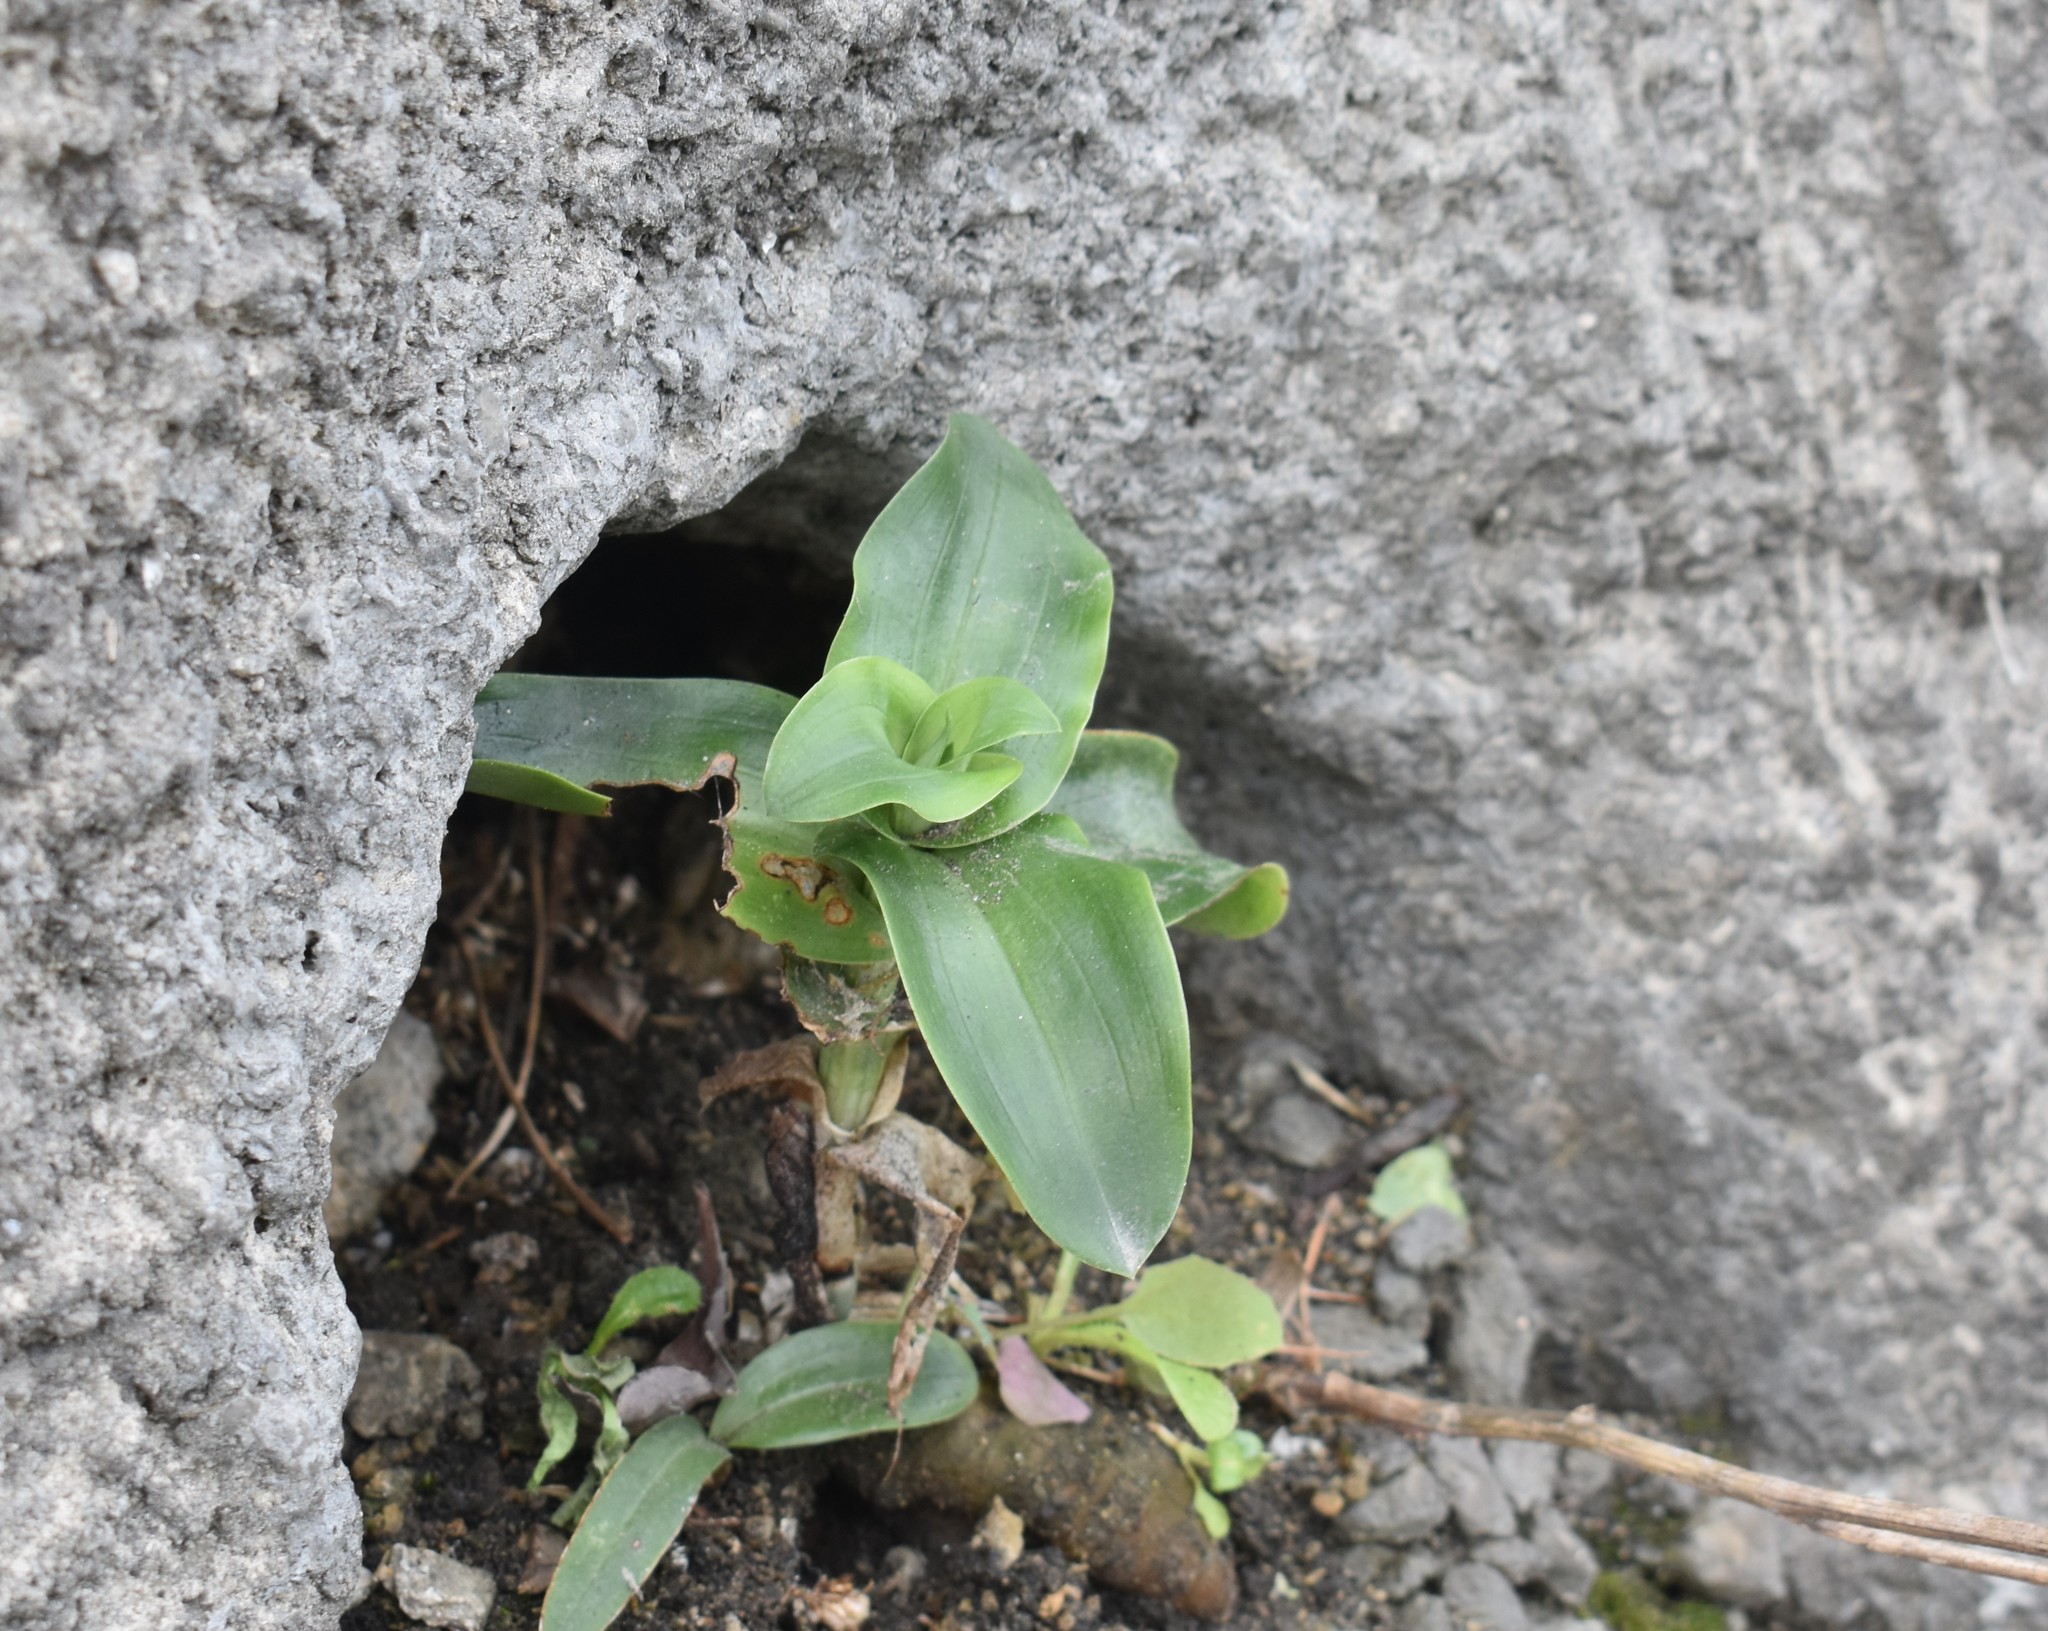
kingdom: Plantae
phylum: Tracheophyta
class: Liliopsida
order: Asparagales
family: Orchidaceae
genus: Bonatea
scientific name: Bonatea speciosa
